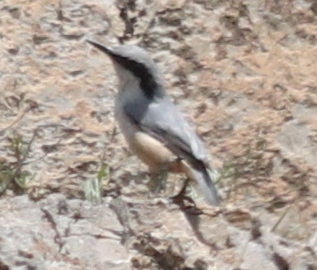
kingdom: Animalia
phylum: Chordata
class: Aves
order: Passeriformes
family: Sittidae
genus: Sitta
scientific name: Sitta tephronota
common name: Eastern rock nuthatch
